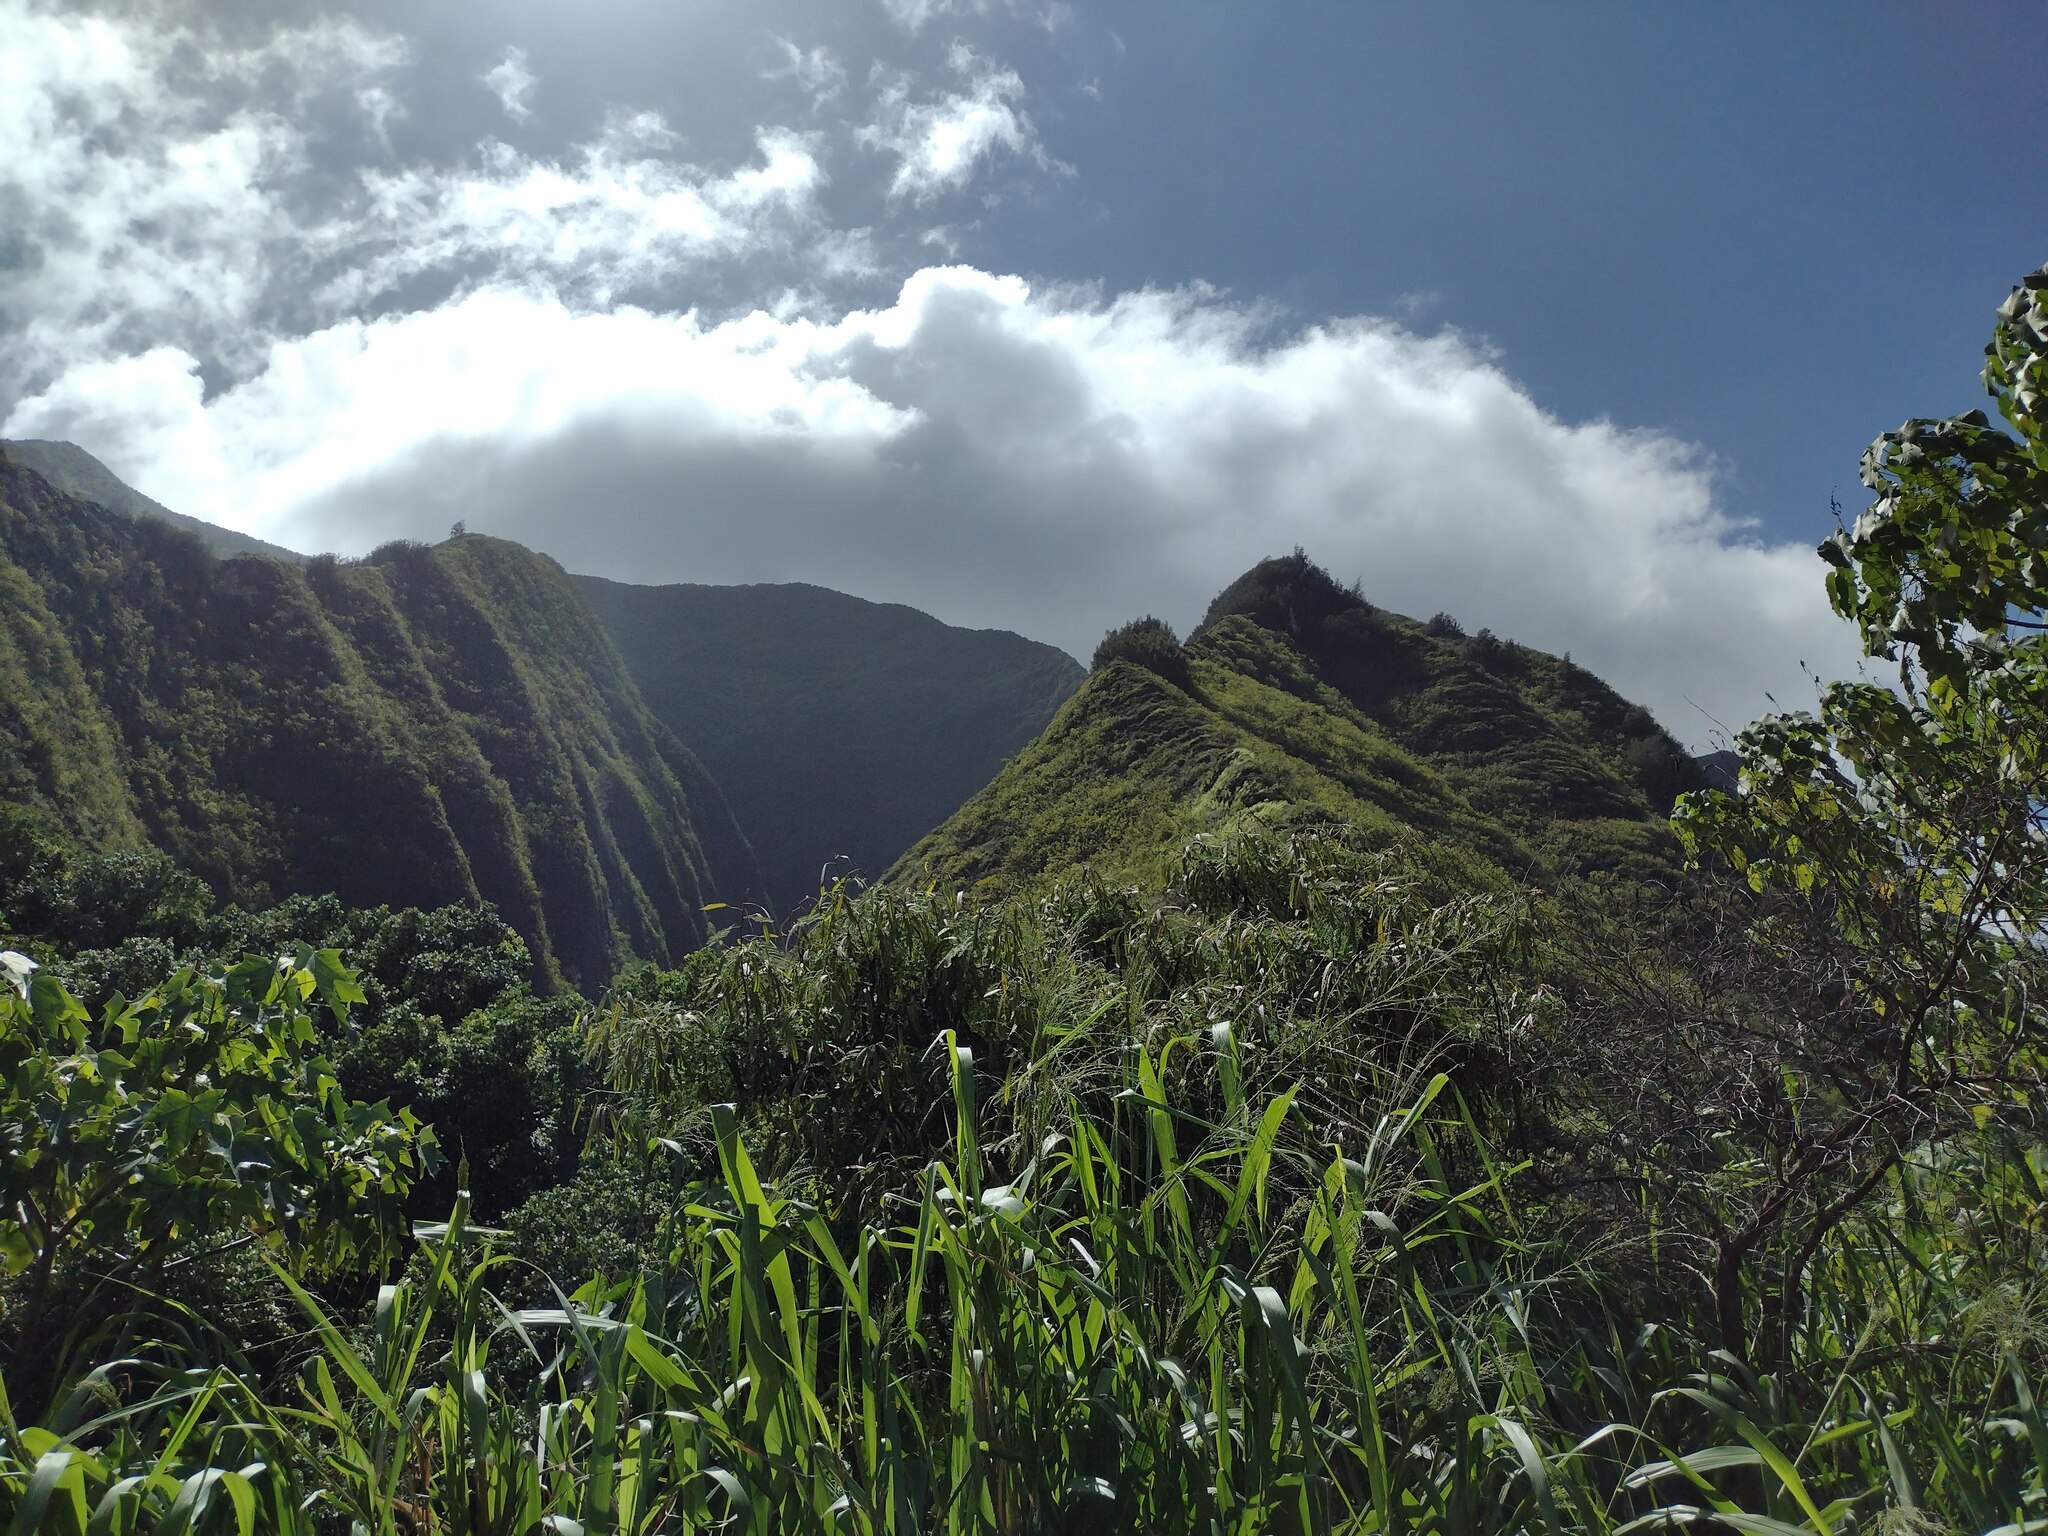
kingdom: Plantae
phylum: Tracheophyta
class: Magnoliopsida
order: Fagales
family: Casuarinaceae
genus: Casuarina
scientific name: Casuarina equisetifolia
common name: Beach sheoak
